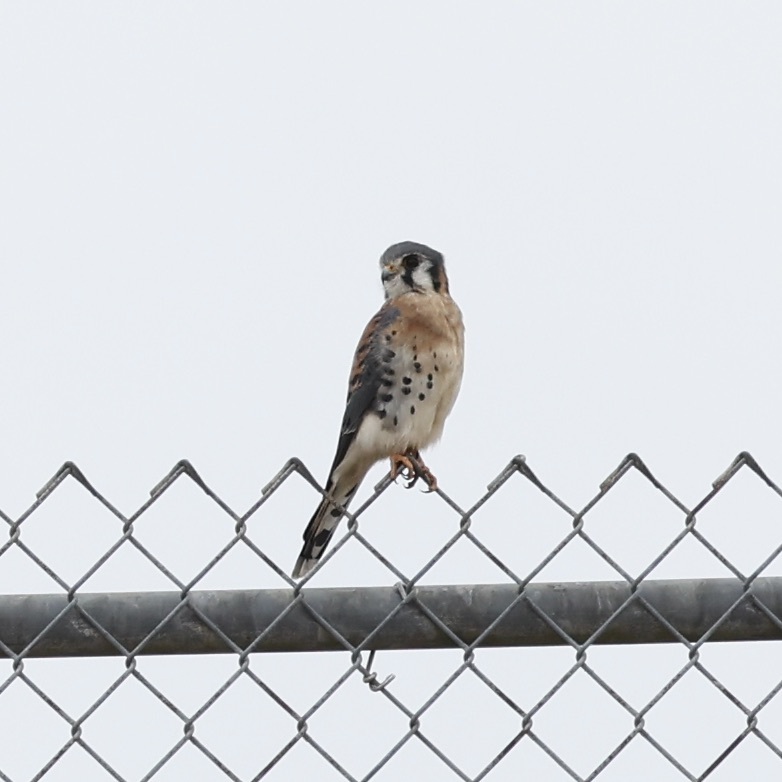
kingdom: Animalia
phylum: Chordata
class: Aves
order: Falconiformes
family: Falconidae
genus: Falco
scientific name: Falco sparverius
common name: American kestrel
